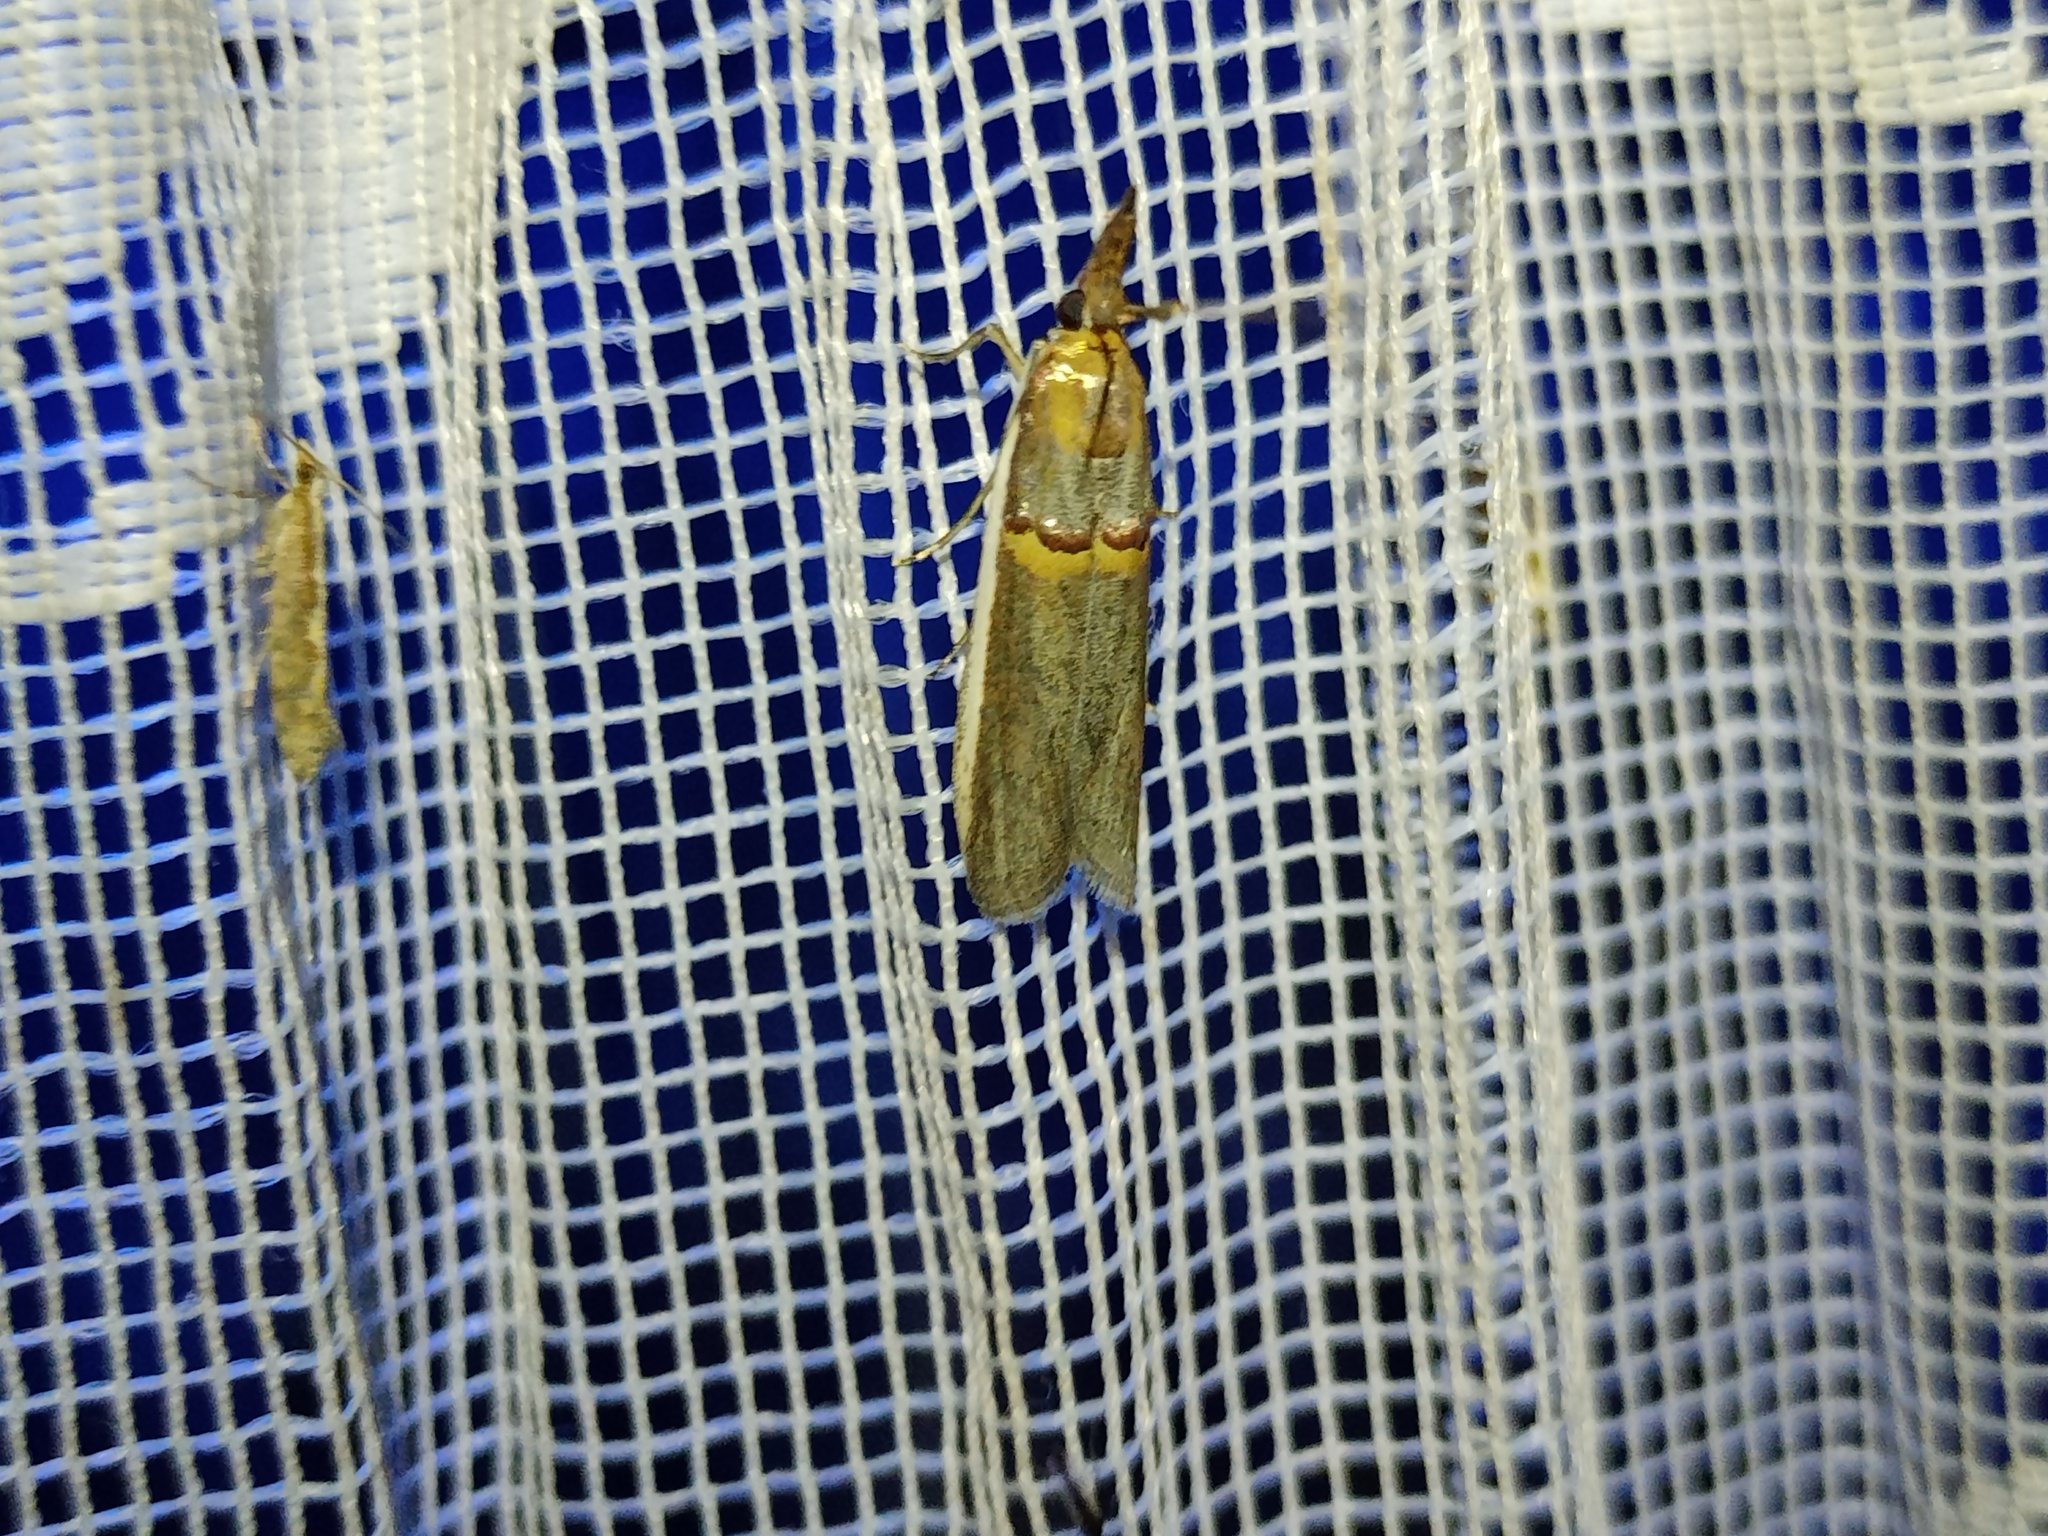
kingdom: Animalia
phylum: Arthropoda
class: Insecta
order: Lepidoptera
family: Pyralidae
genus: Etiella
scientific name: Etiella zinckenella
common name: Gold-banded etiella moth
